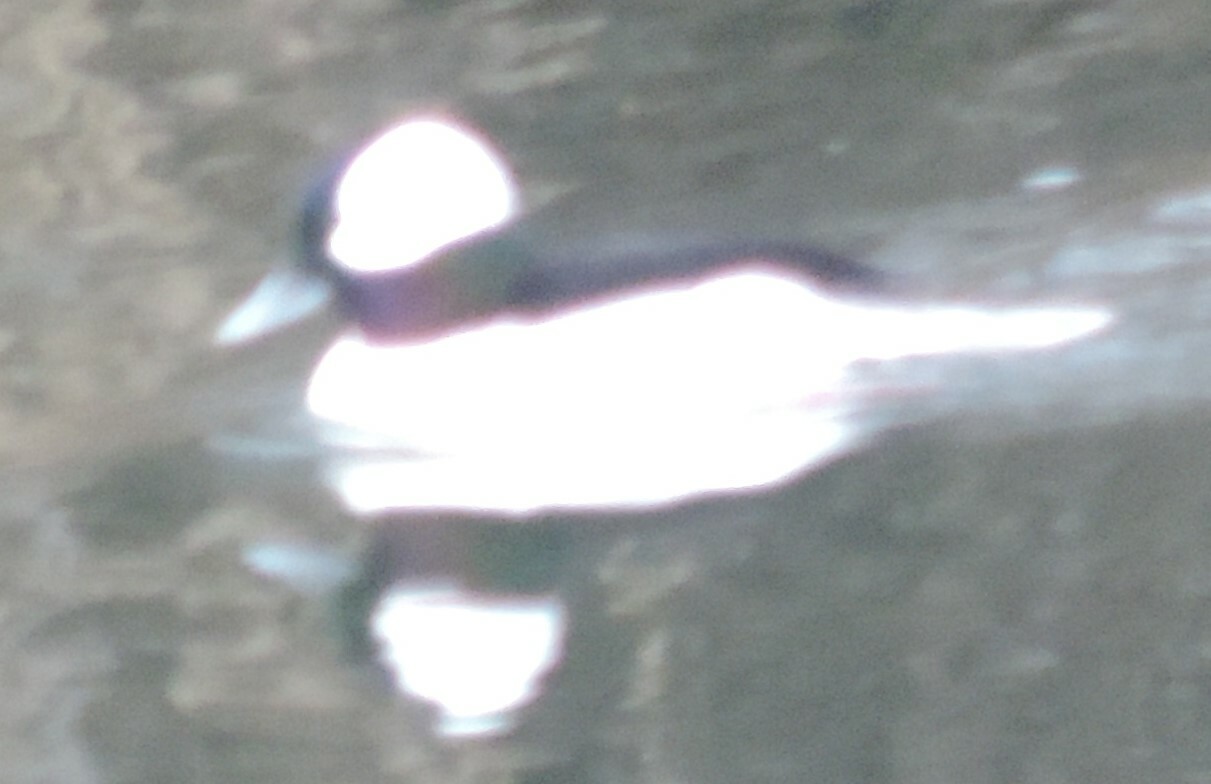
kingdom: Animalia
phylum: Chordata
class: Aves
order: Anseriformes
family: Anatidae
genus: Bucephala
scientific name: Bucephala albeola
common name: Bufflehead
